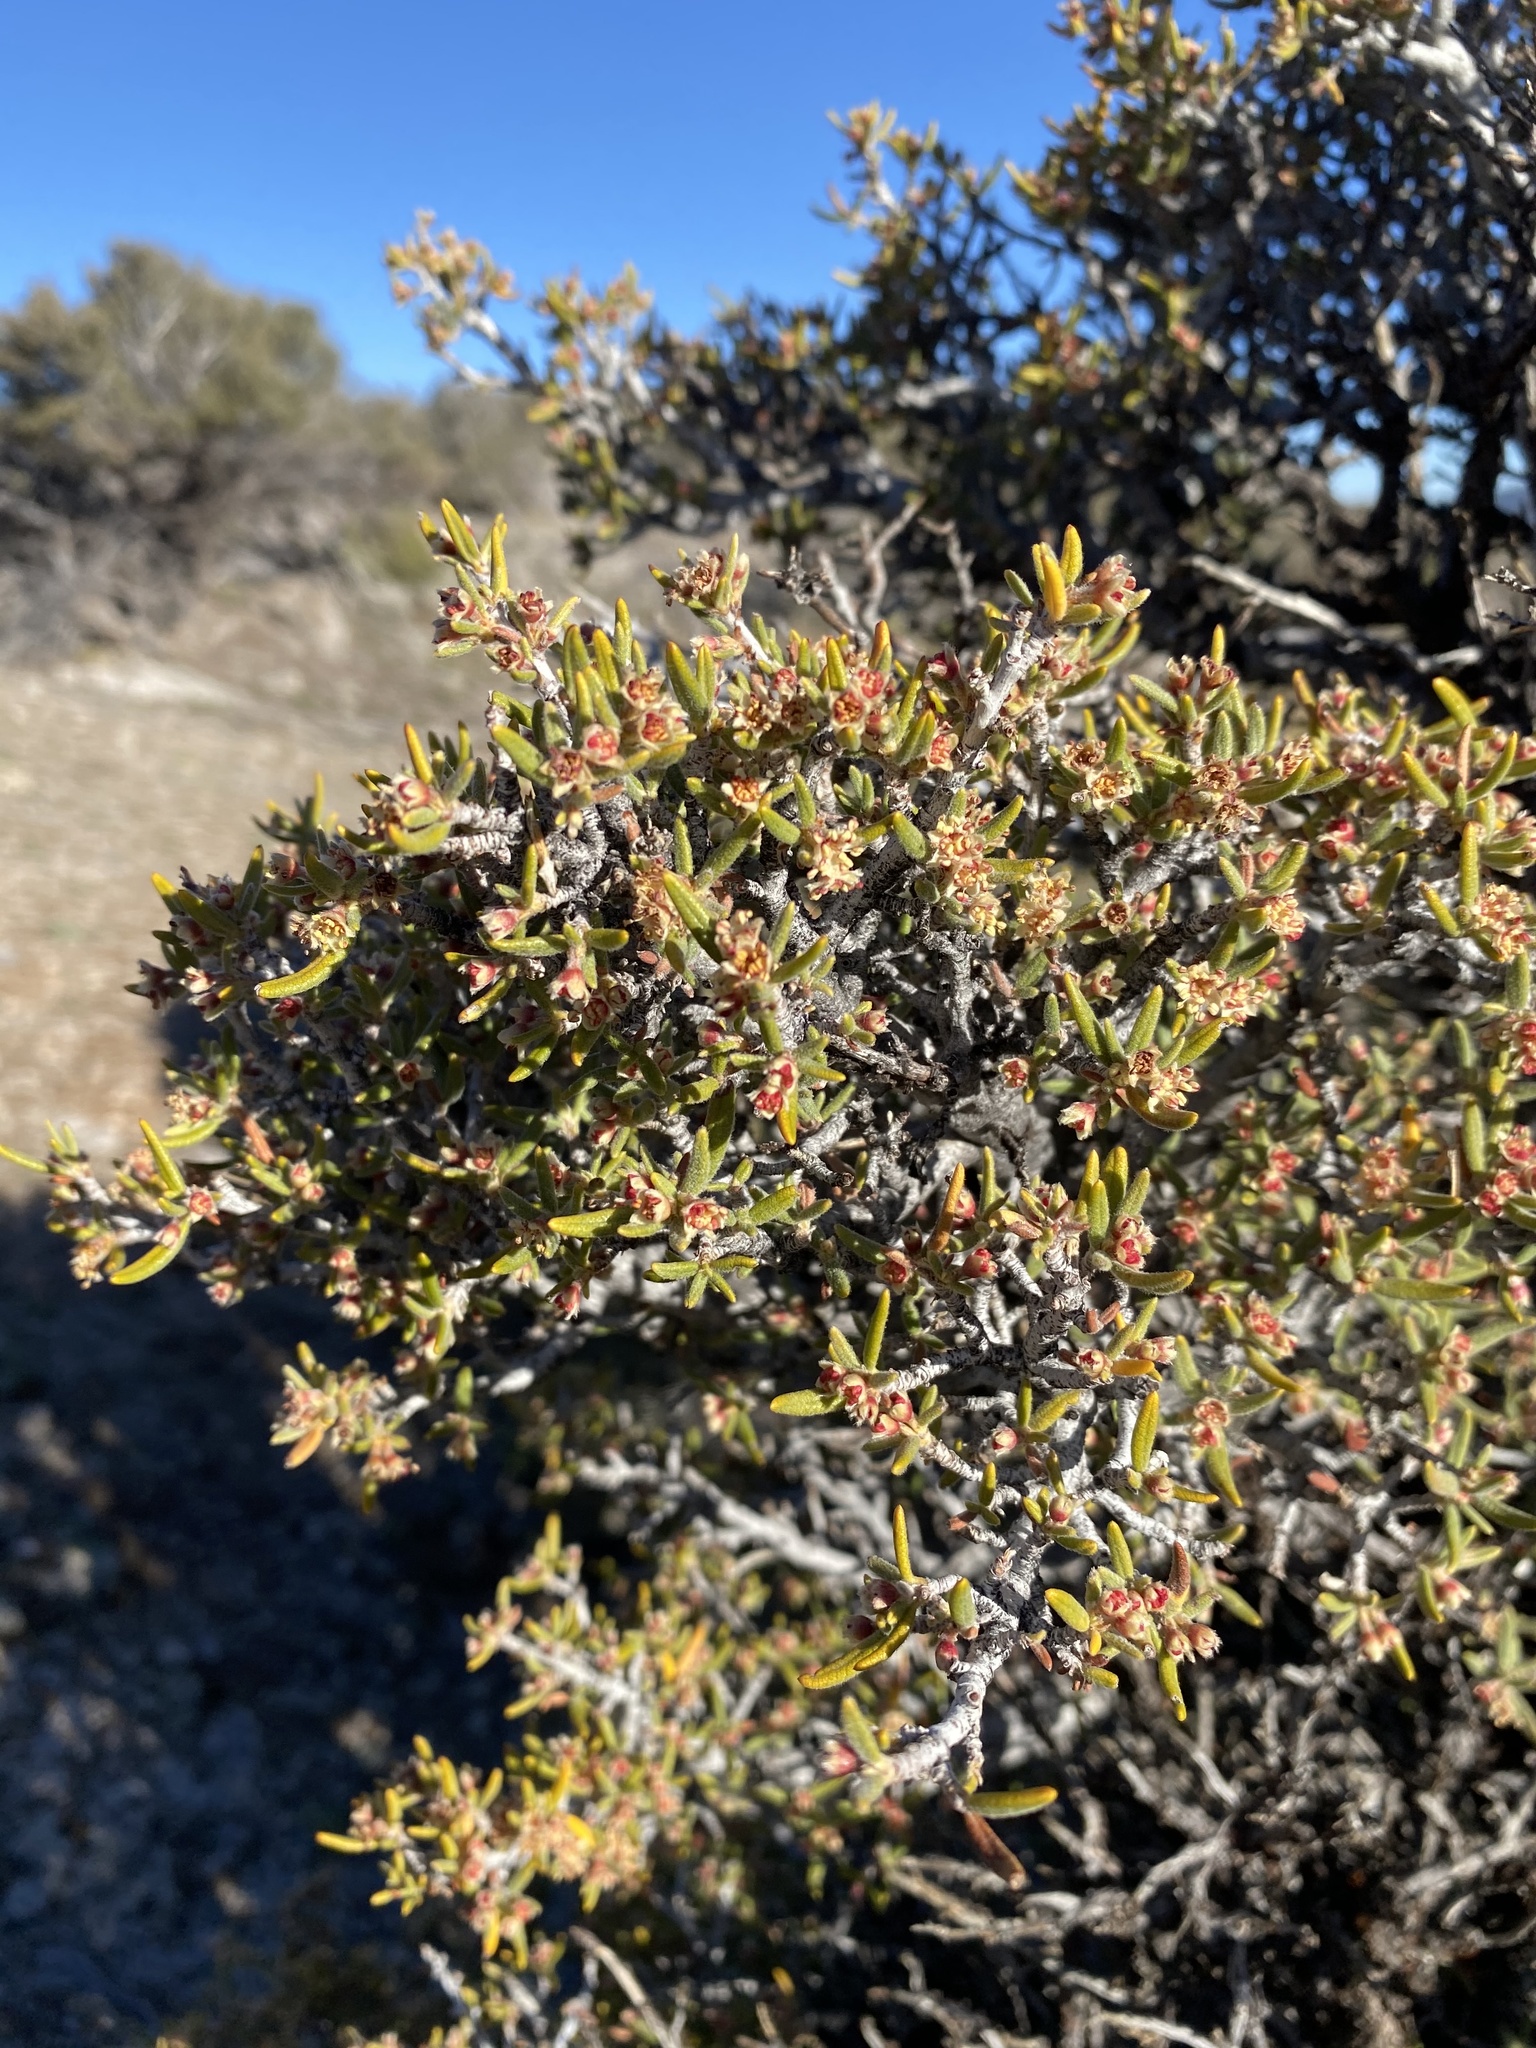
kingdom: Plantae
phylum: Tracheophyta
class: Magnoliopsida
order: Rosales
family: Rosaceae
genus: Cercocarpus
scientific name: Cercocarpus intricatus
